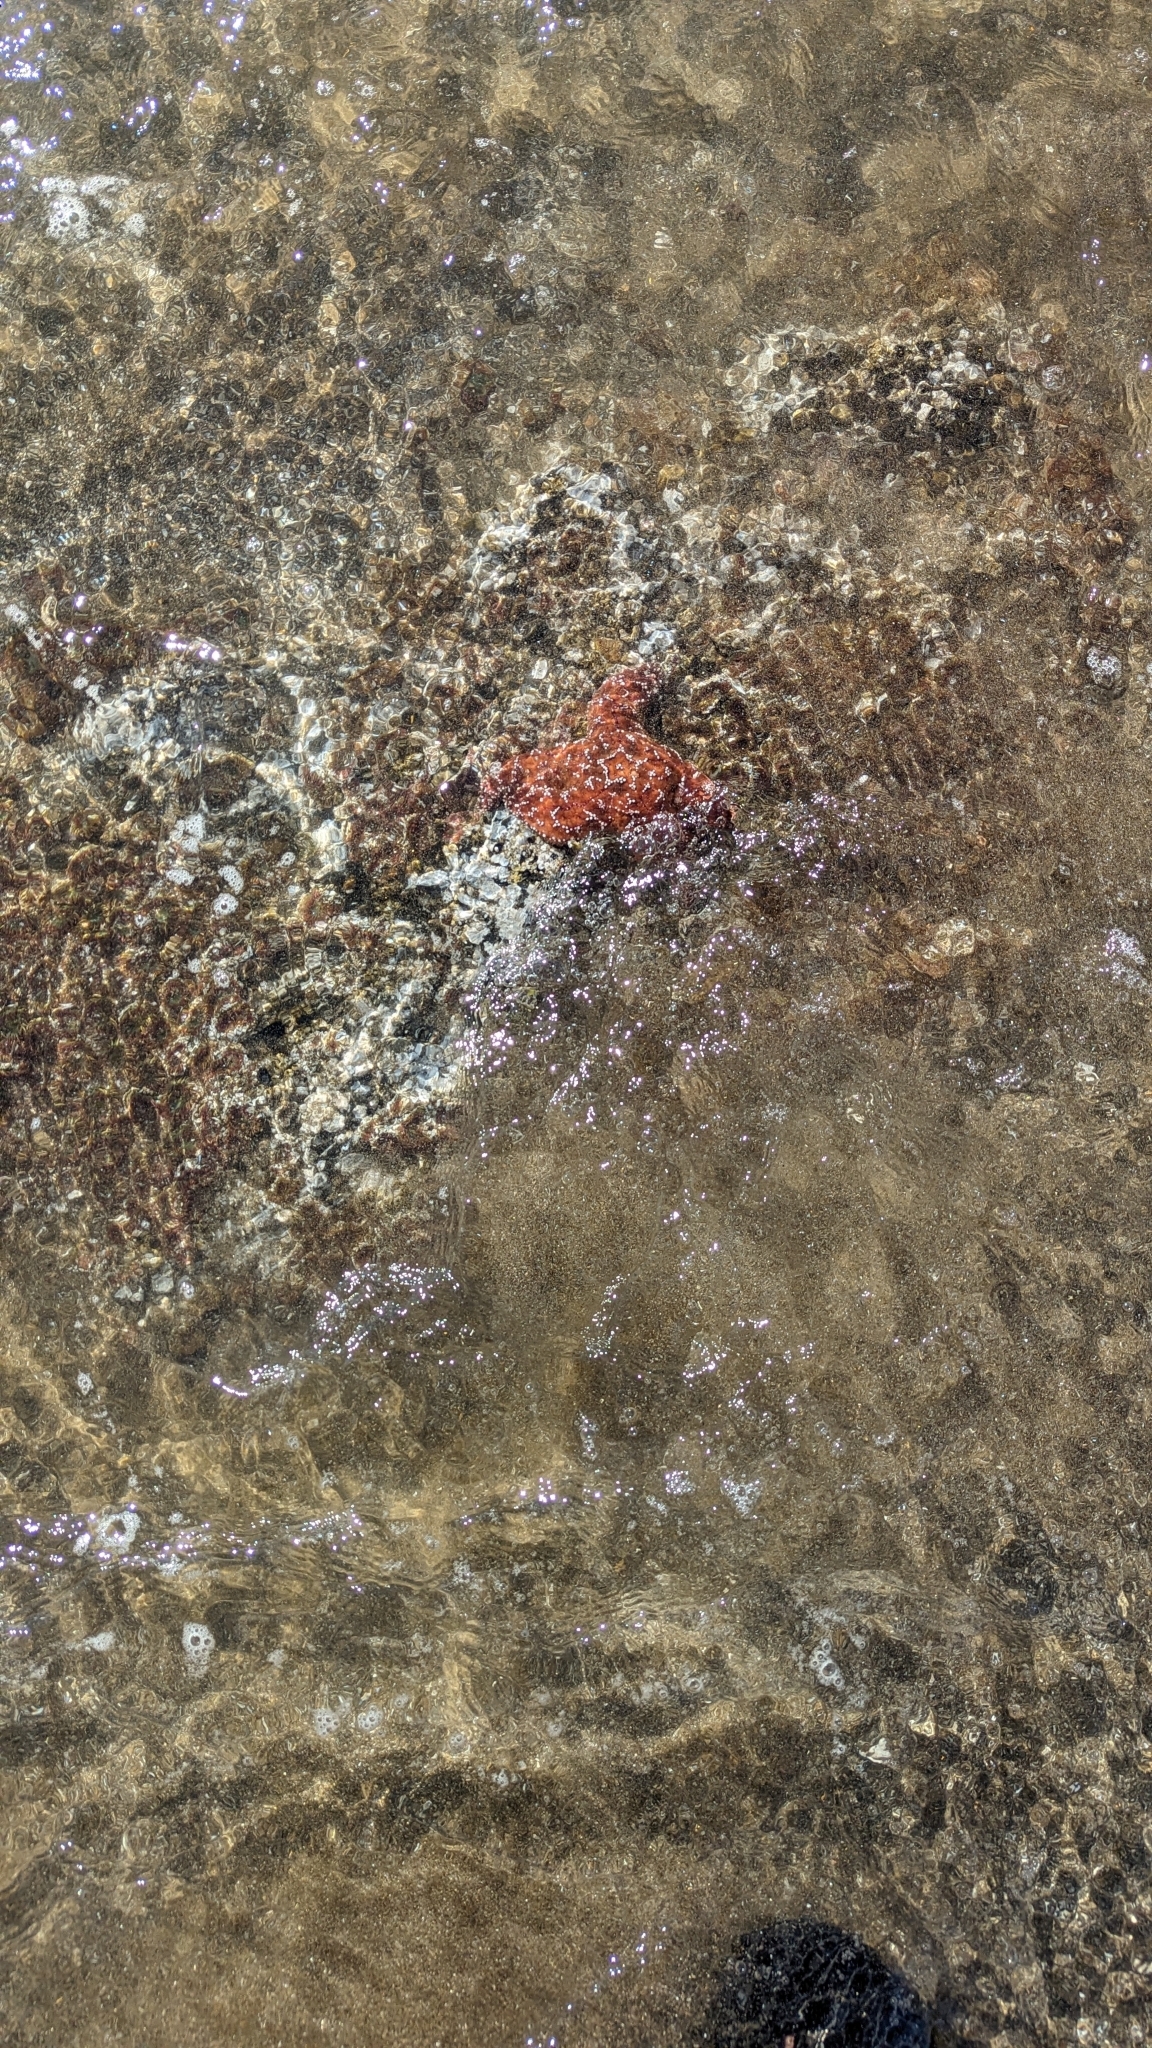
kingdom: Animalia
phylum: Echinodermata
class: Asteroidea
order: Forcipulatida
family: Asteriidae
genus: Pisaster
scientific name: Pisaster ochraceus
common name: Ochre stars
